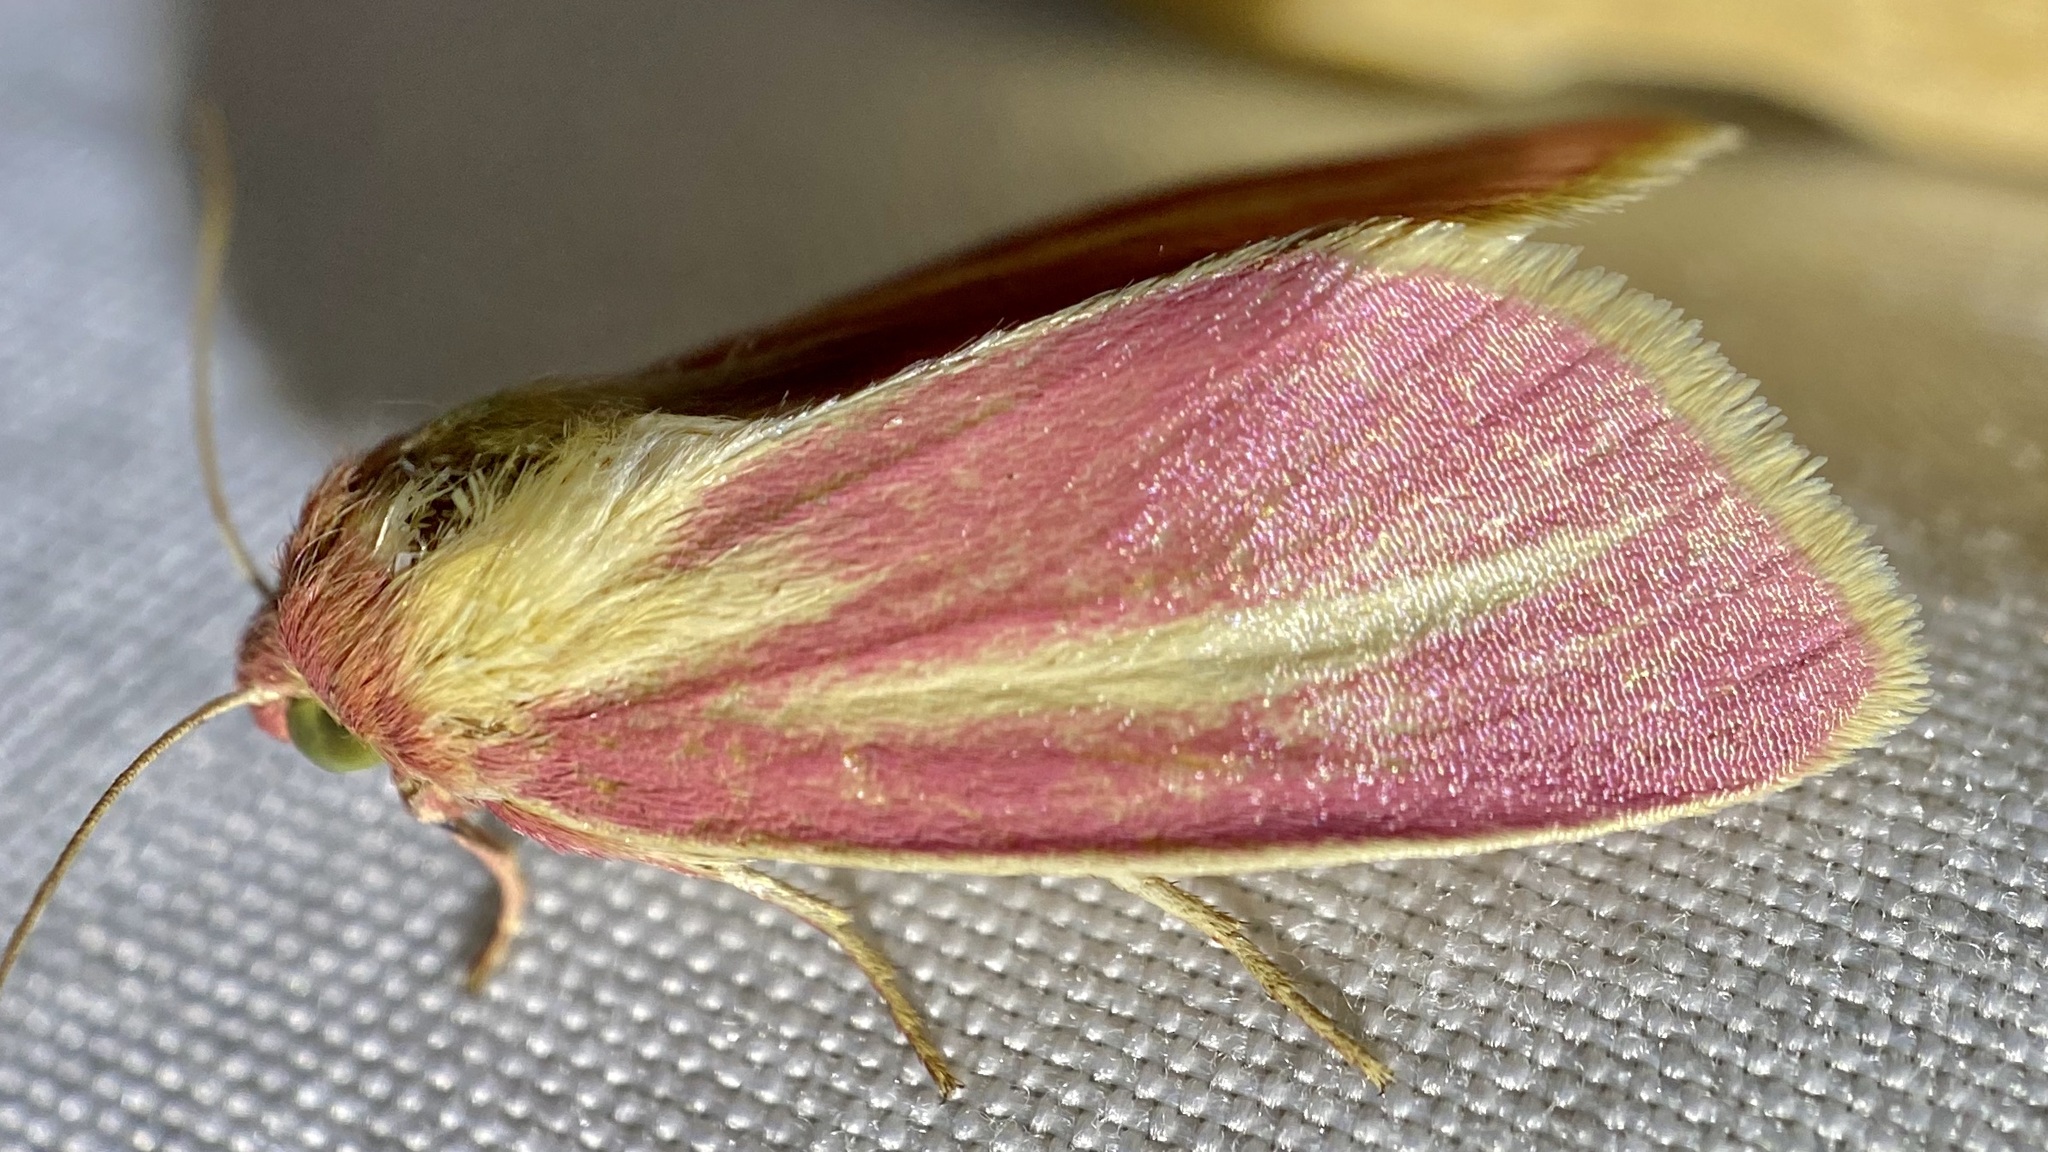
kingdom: Animalia
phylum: Arthropoda
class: Insecta
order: Lepidoptera
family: Noctuidae
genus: Heliocheilus
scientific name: Heliocheilus julia
